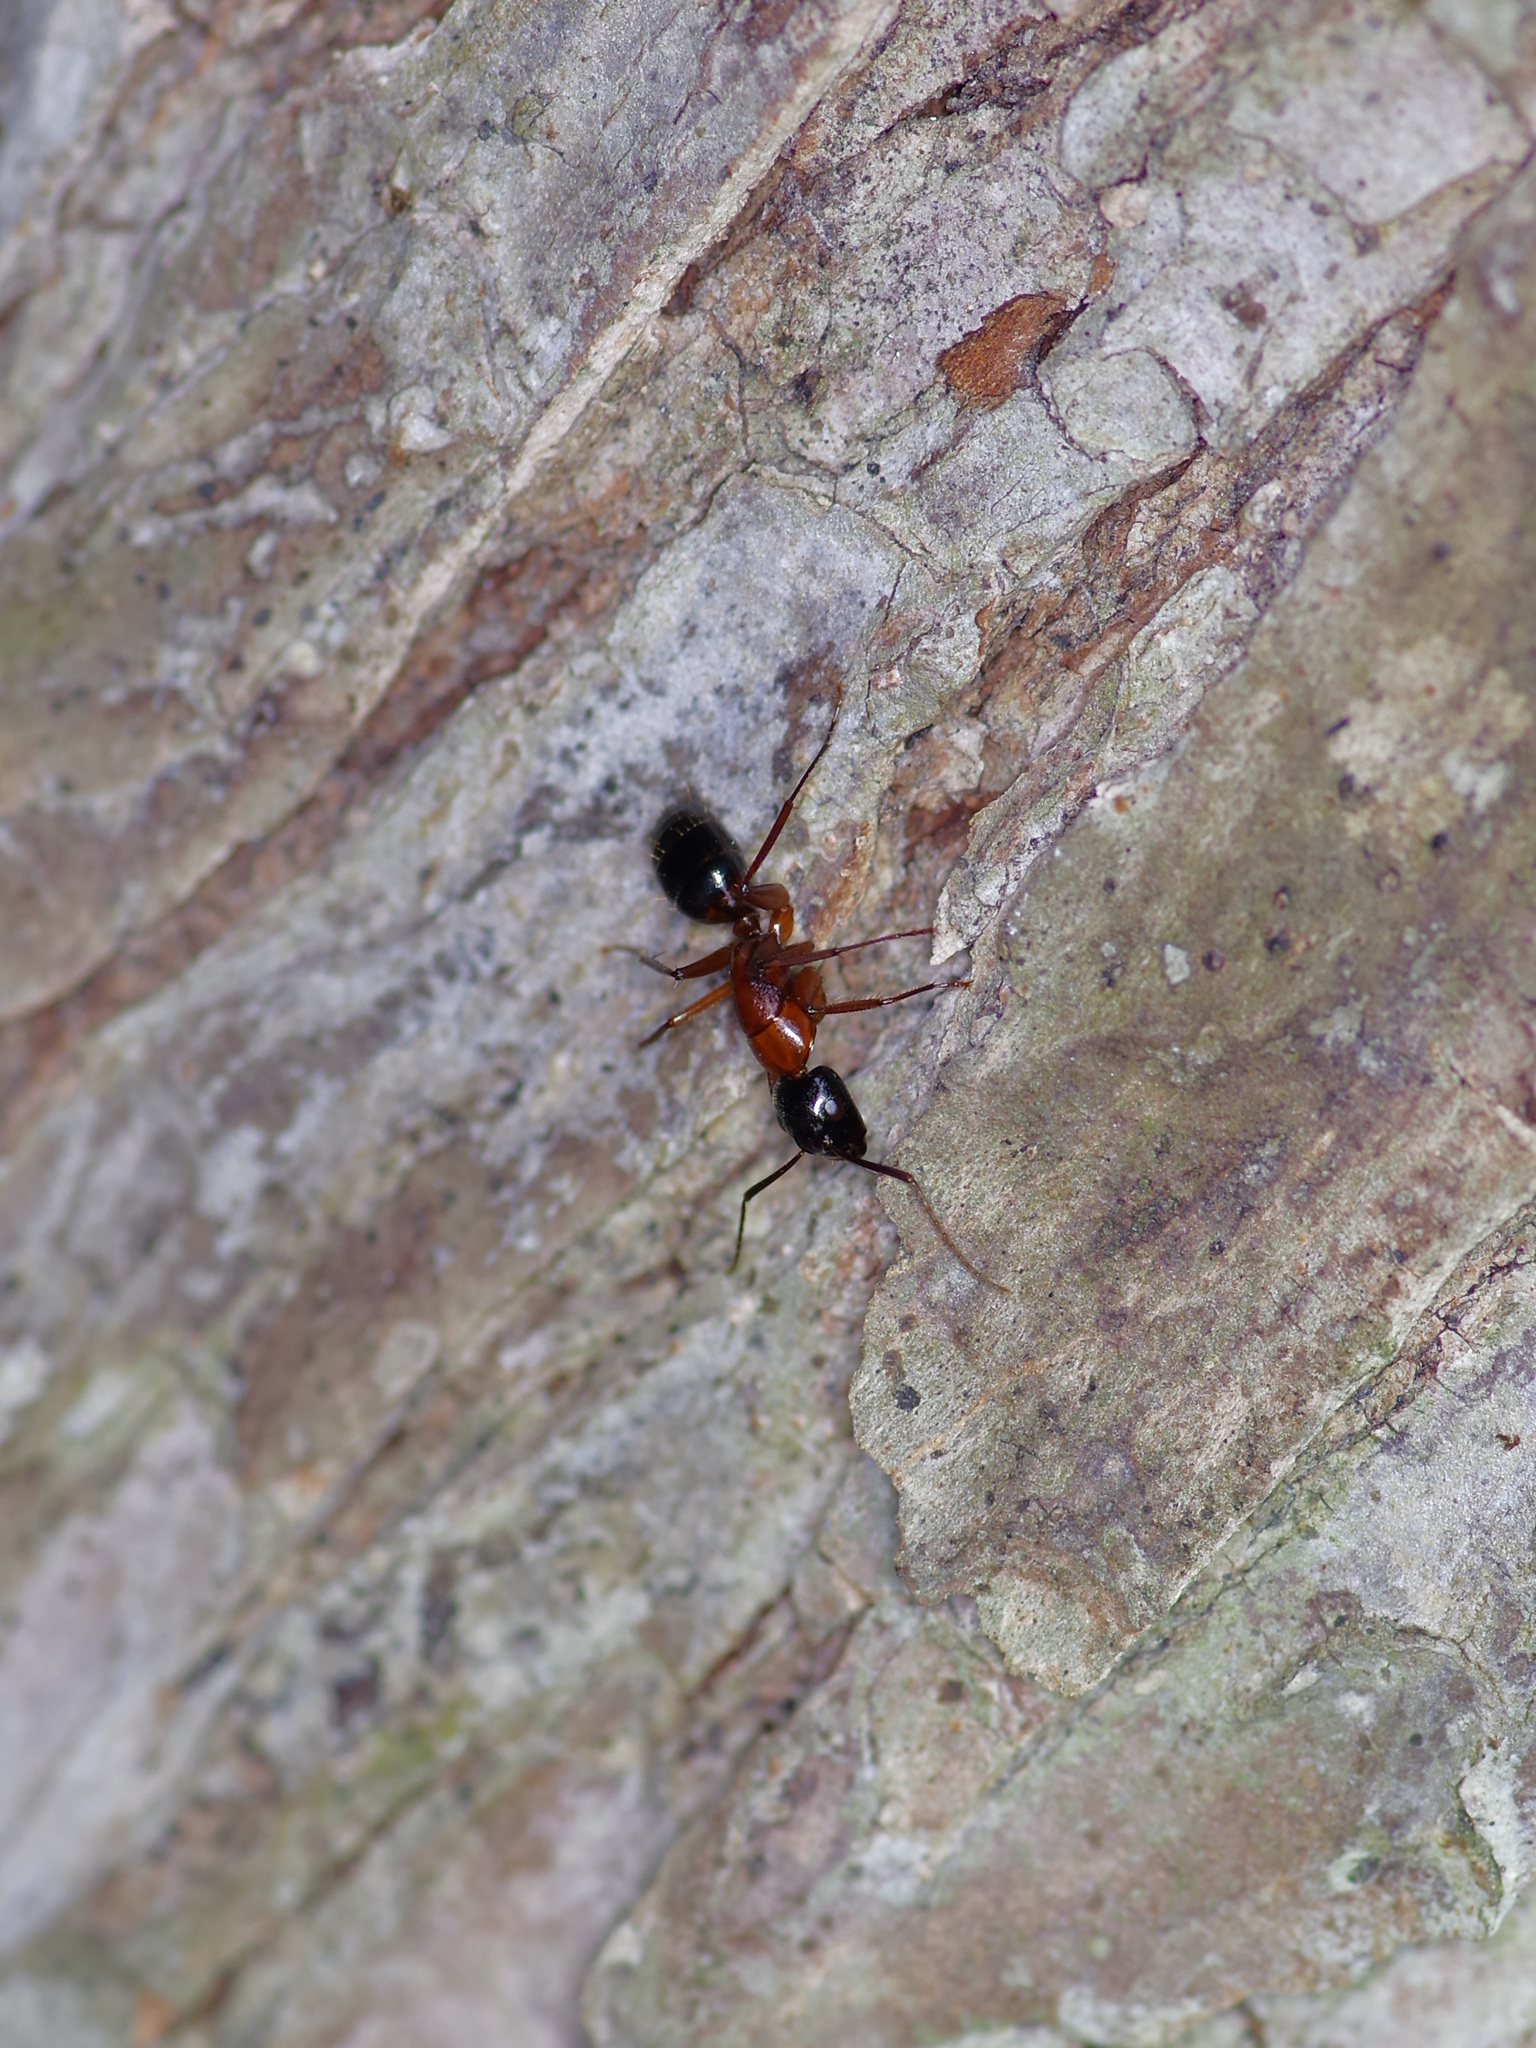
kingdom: Animalia
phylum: Arthropoda
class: Insecta
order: Hymenoptera
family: Formicidae
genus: Camponotus
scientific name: Camponotus texanus
